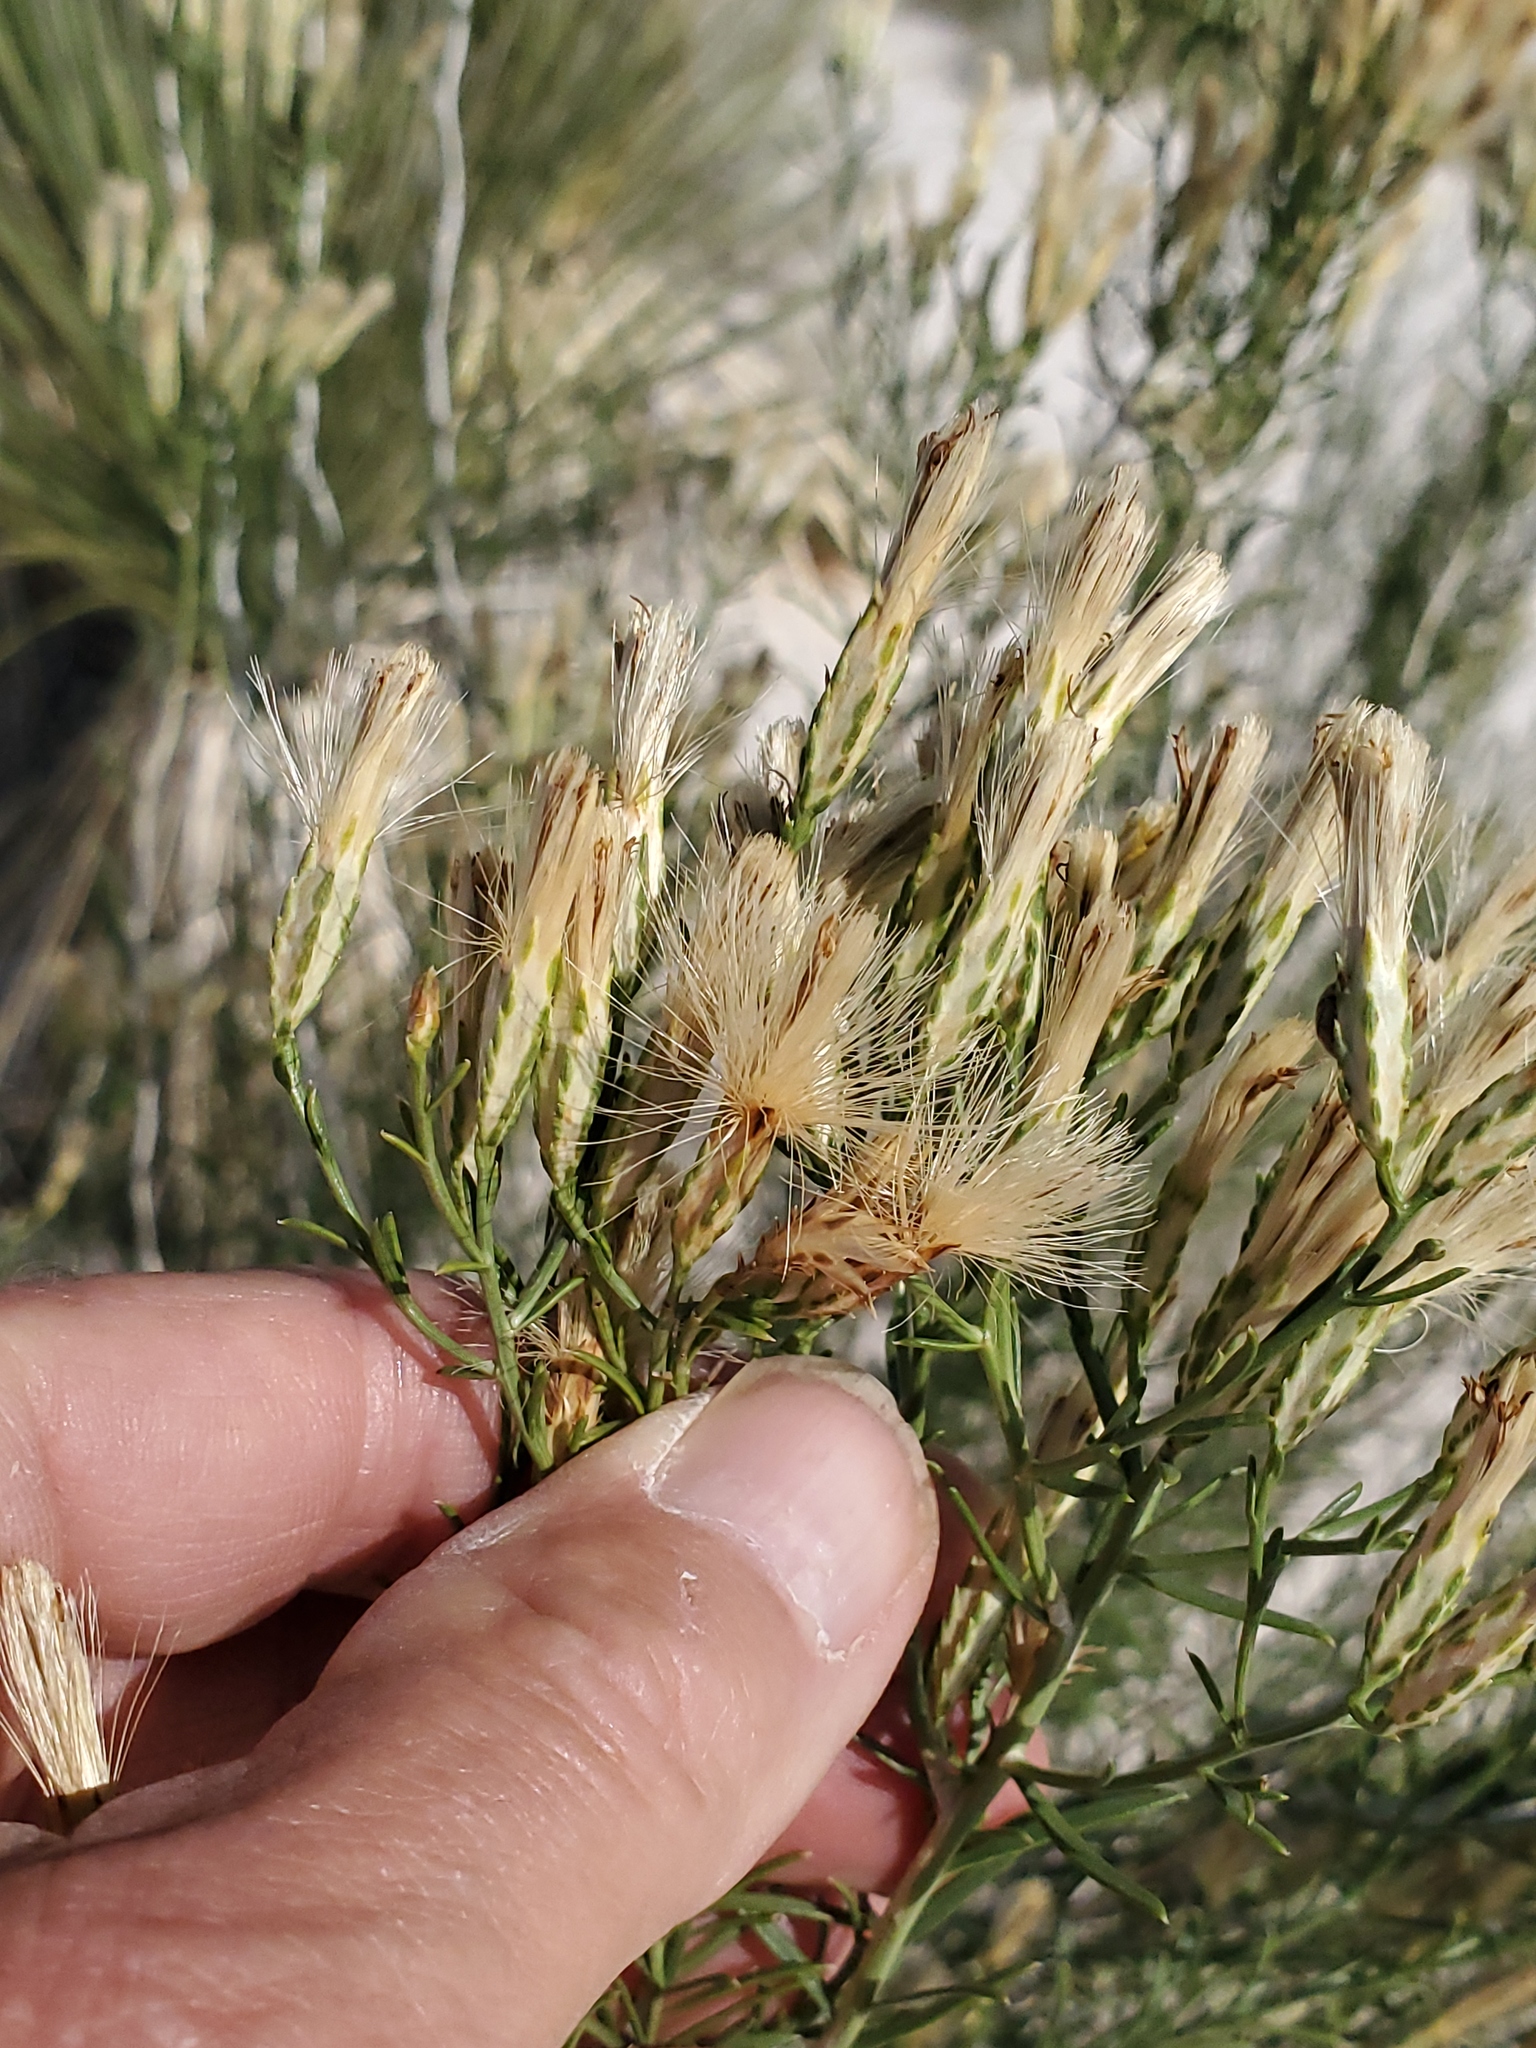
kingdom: Plantae
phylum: Tracheophyta
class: Magnoliopsida
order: Asterales
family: Asteraceae
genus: Lorandersonia
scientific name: Lorandersonia pulchella
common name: Southwestern rabbitbrush
